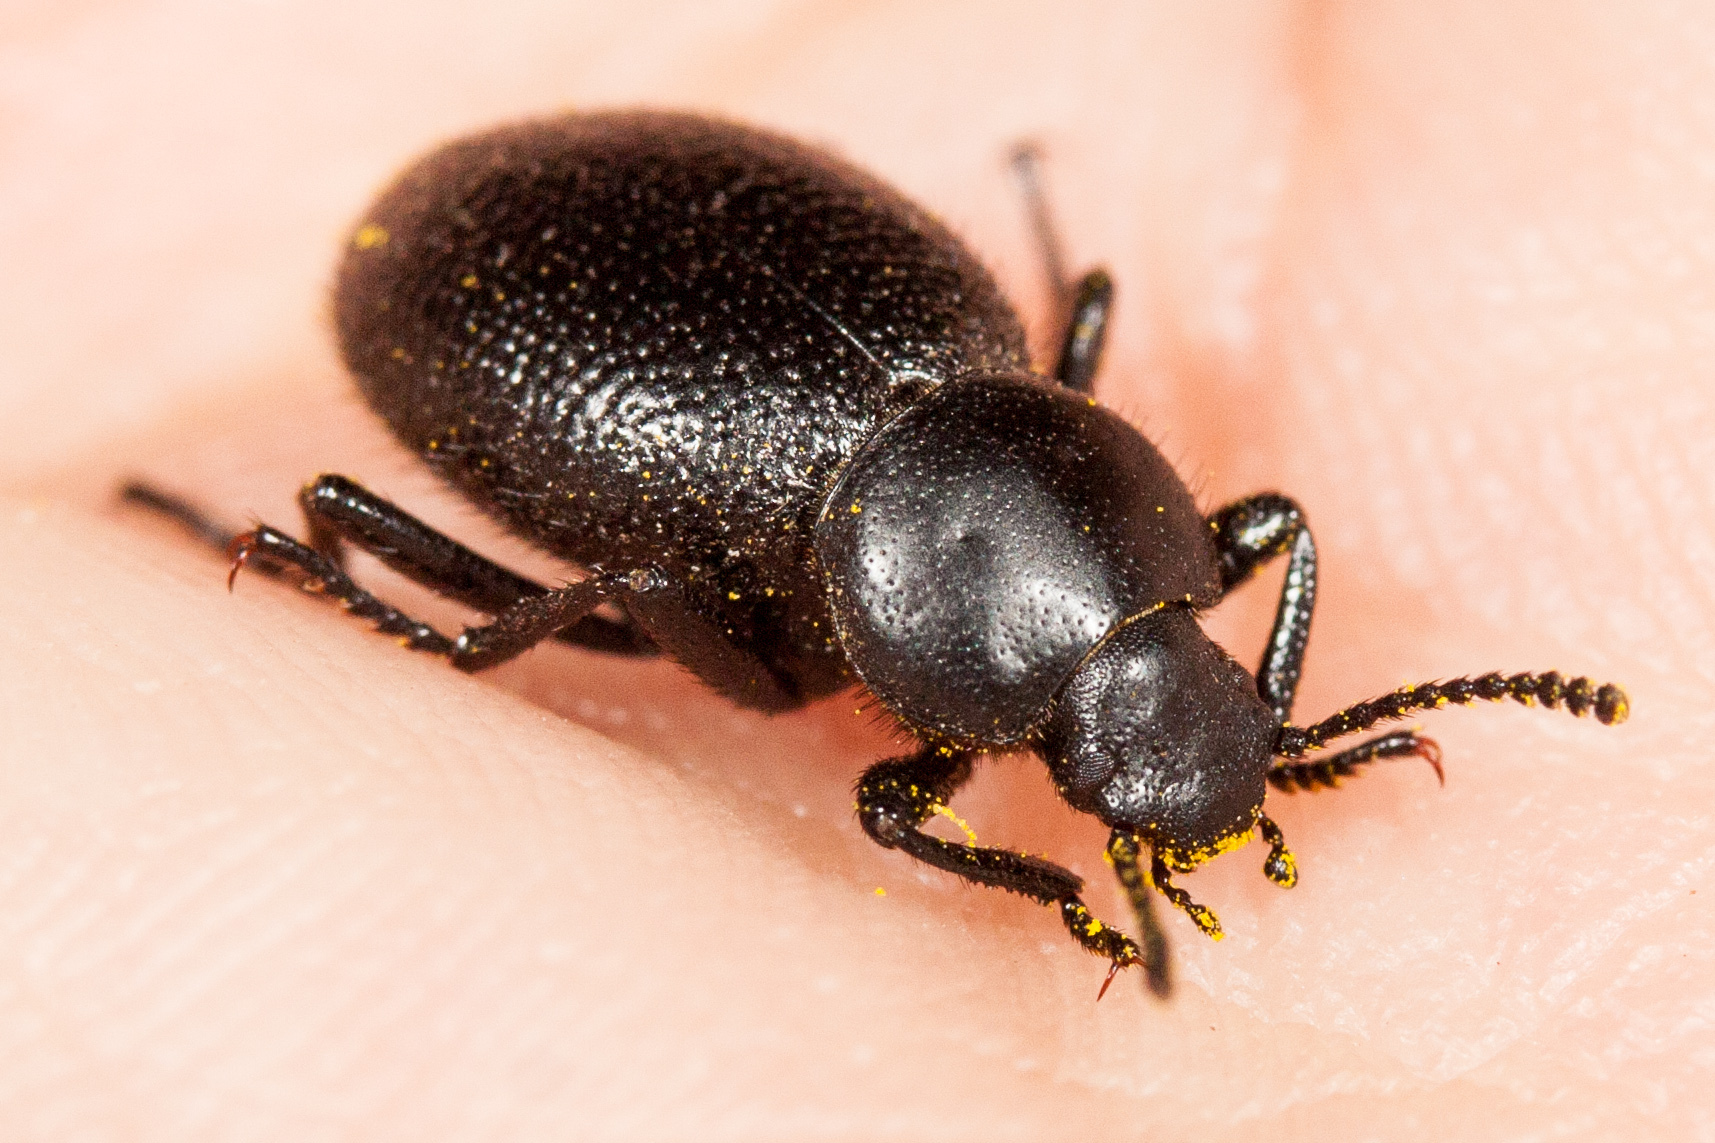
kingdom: Animalia
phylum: Arthropoda
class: Insecta
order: Coleoptera
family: Tenebrionidae
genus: Eleodes
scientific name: Eleodes clavicornis
